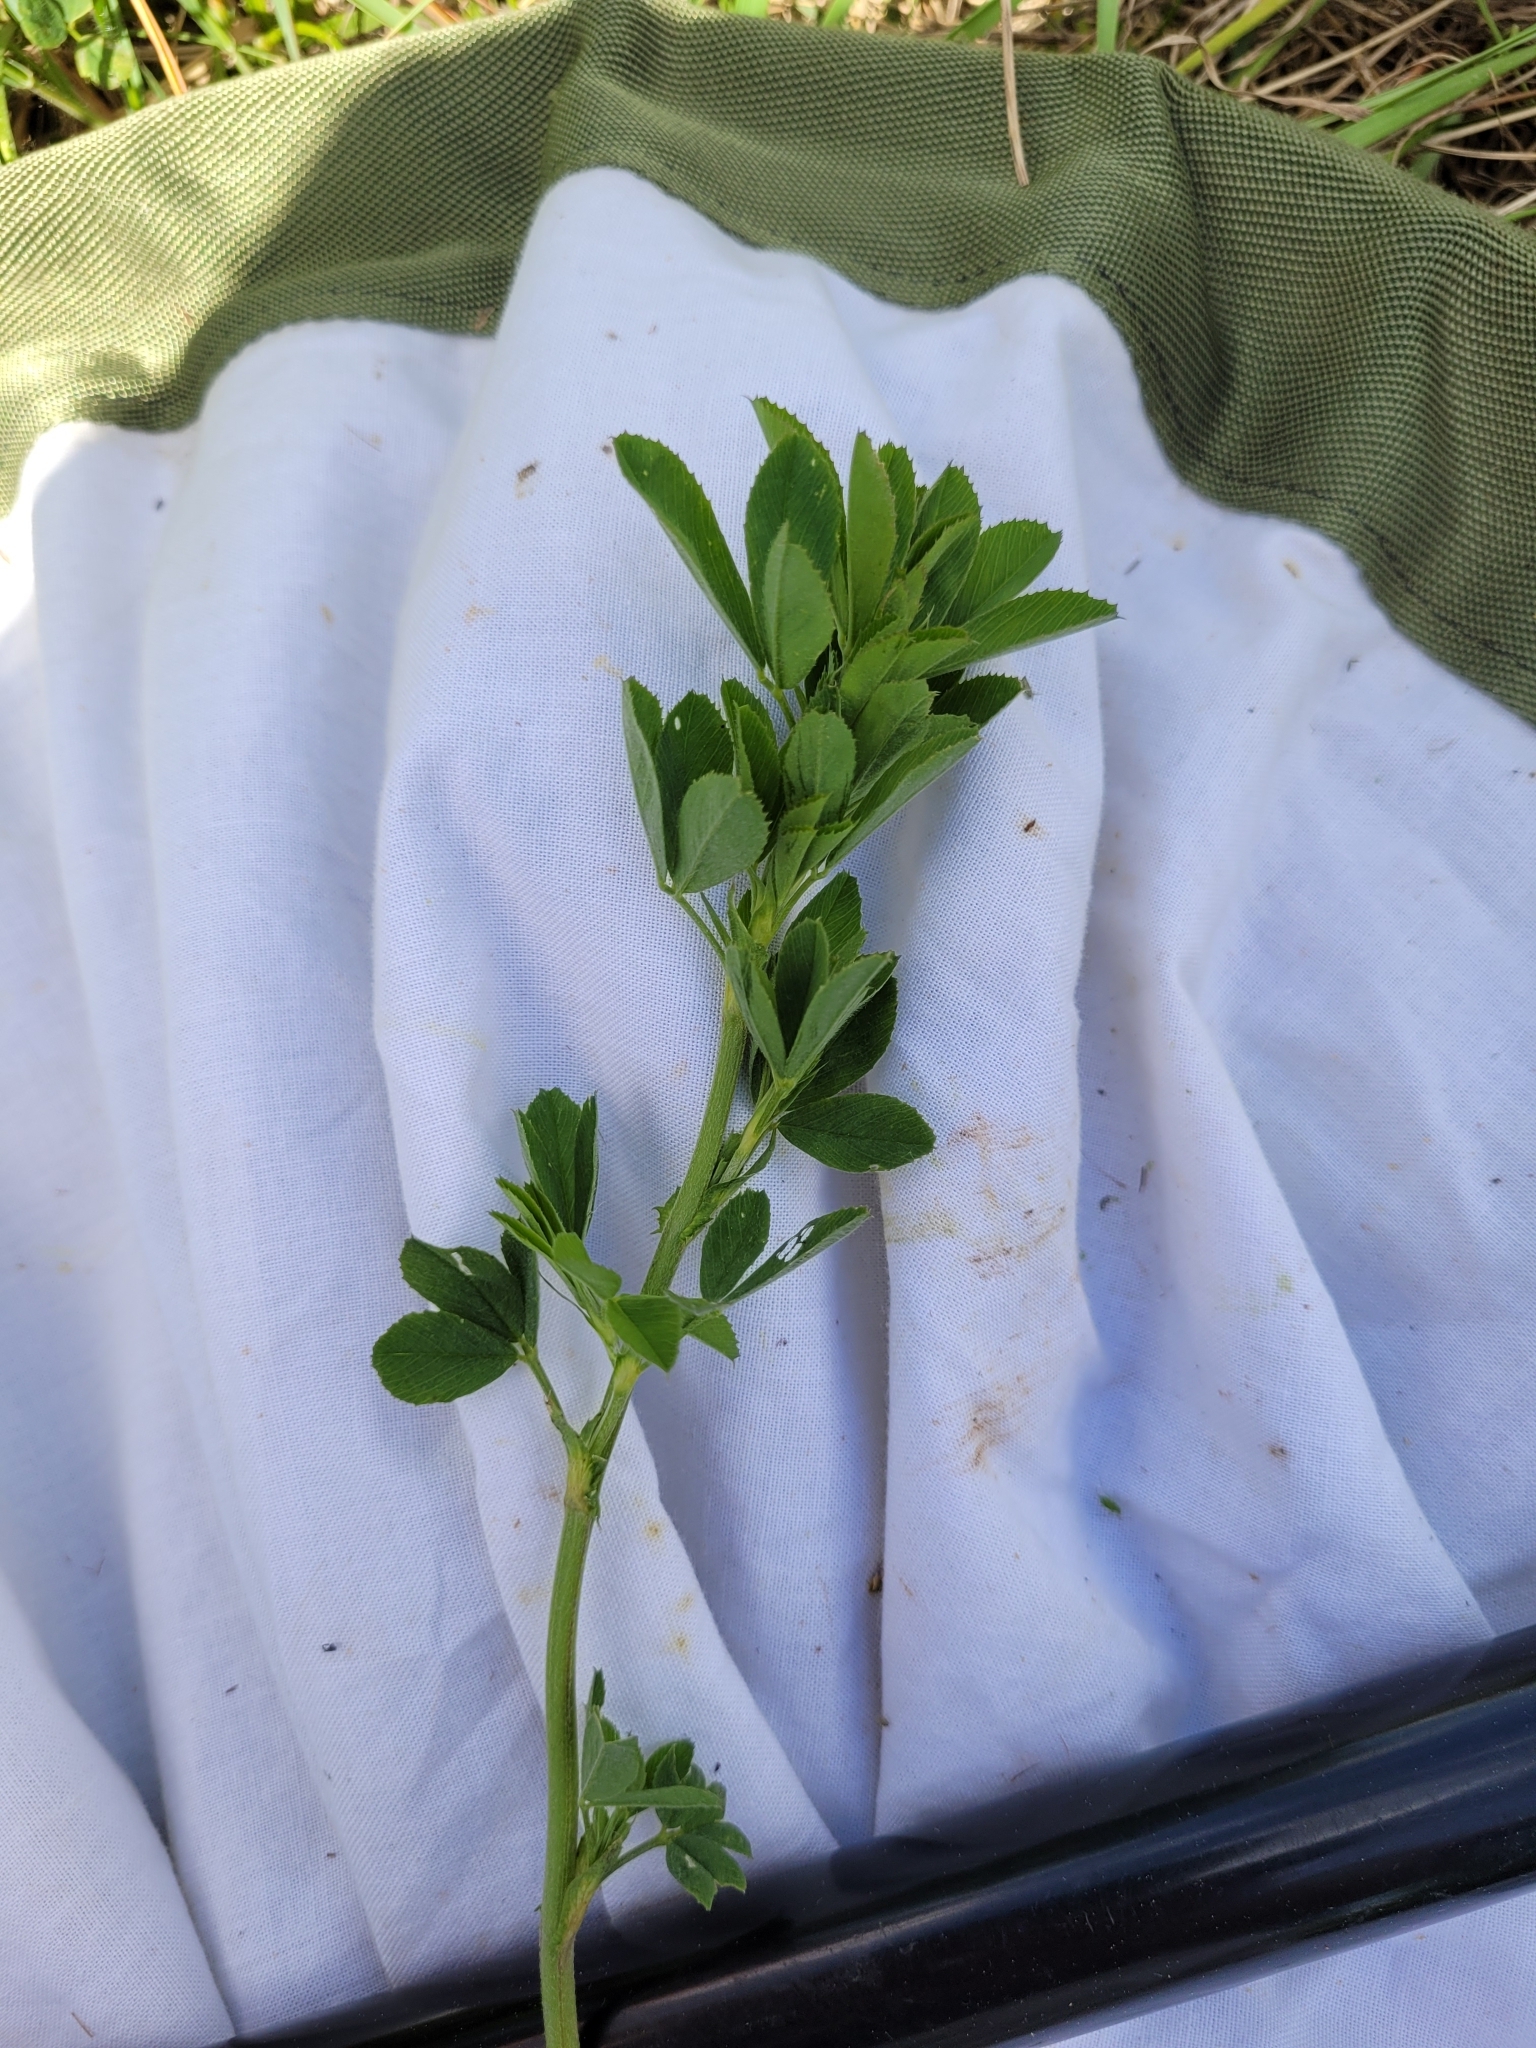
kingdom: Plantae
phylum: Tracheophyta
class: Magnoliopsida
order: Fabales
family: Fabaceae
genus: Medicago
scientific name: Medicago sativa
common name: Alfalfa
